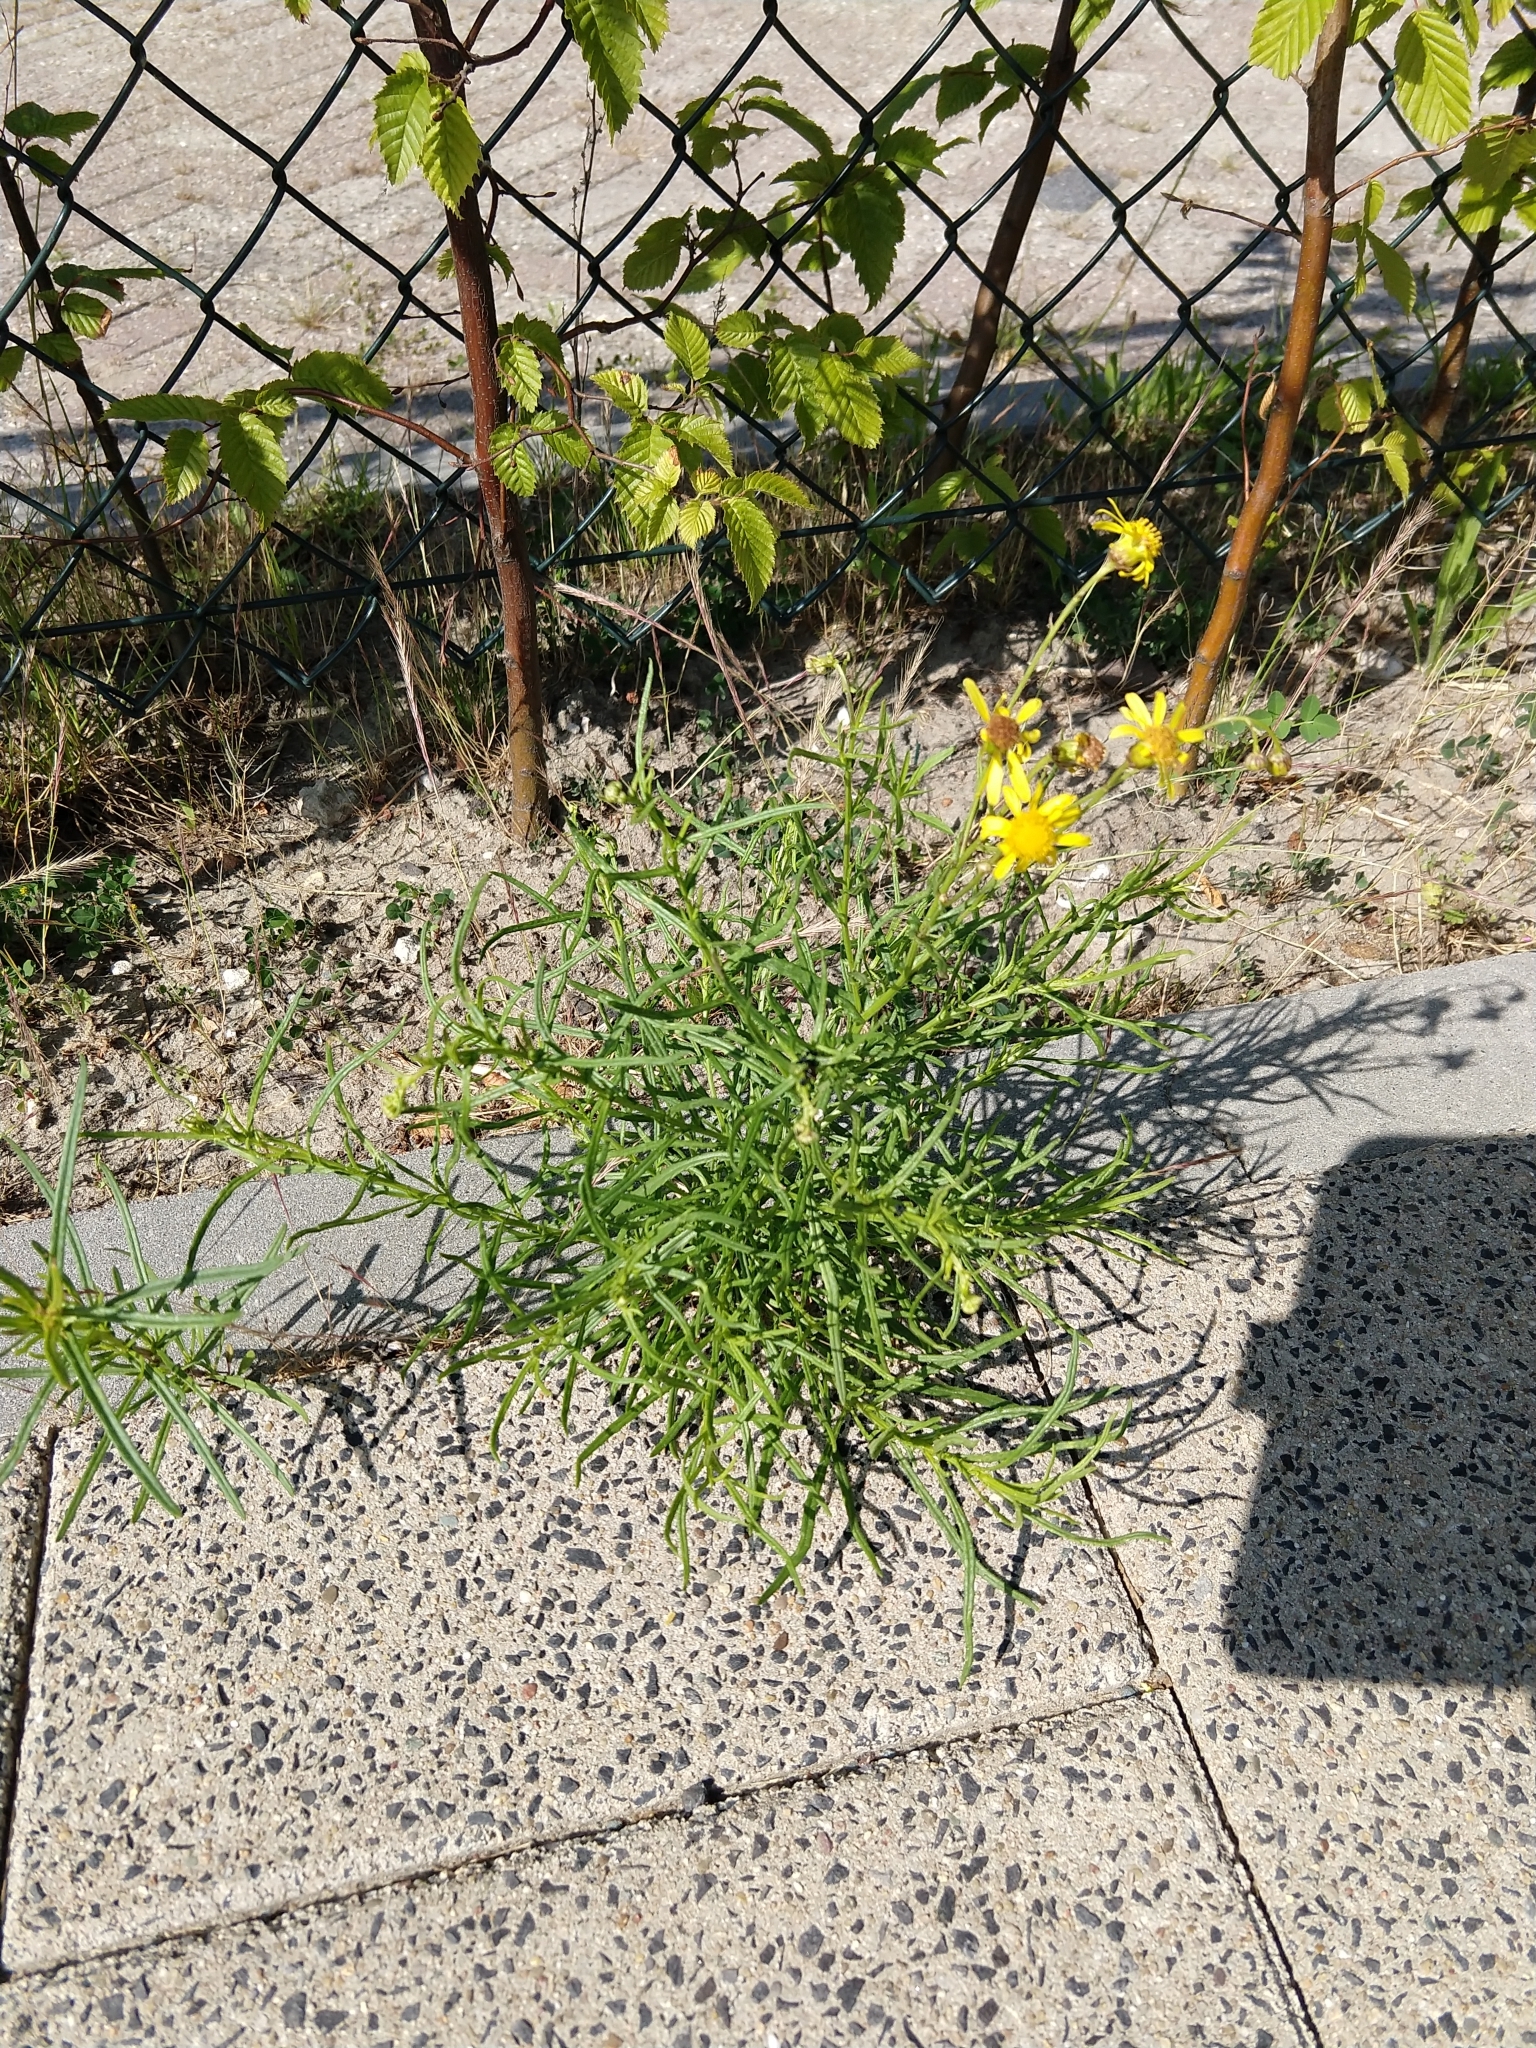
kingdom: Plantae
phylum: Tracheophyta
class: Magnoliopsida
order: Asterales
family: Asteraceae
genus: Senecio
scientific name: Senecio inaequidens
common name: Narrow-leaved ragwort
